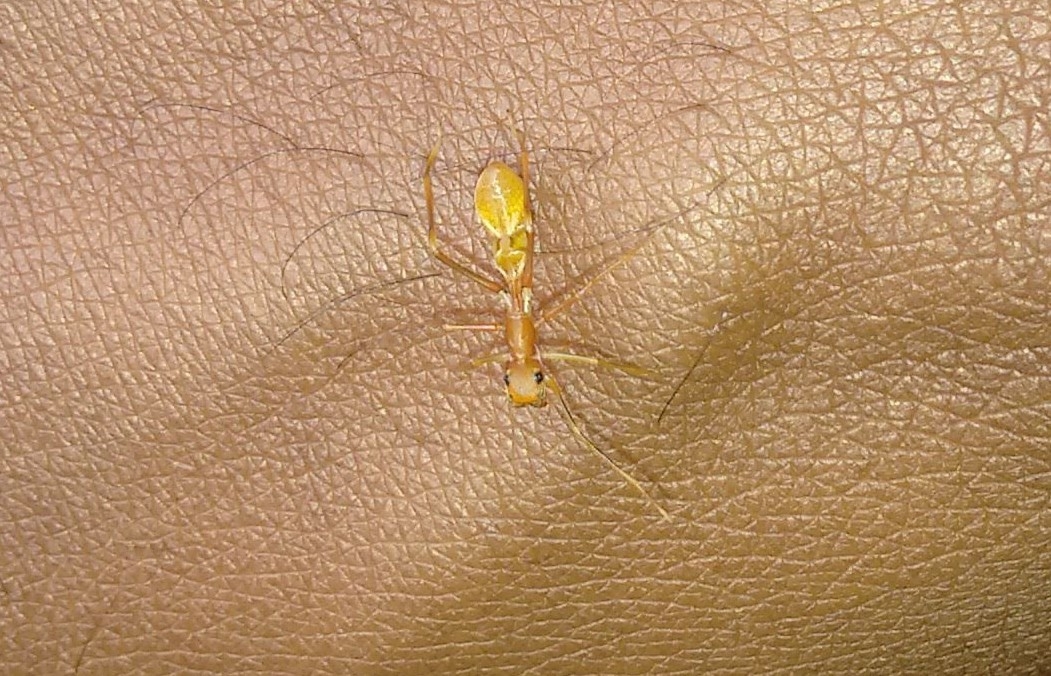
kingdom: Animalia
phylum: Arthropoda
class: Arachnida
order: Araneae
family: Salticidae
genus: Myrmaplata
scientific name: Myrmaplata plataleoides
